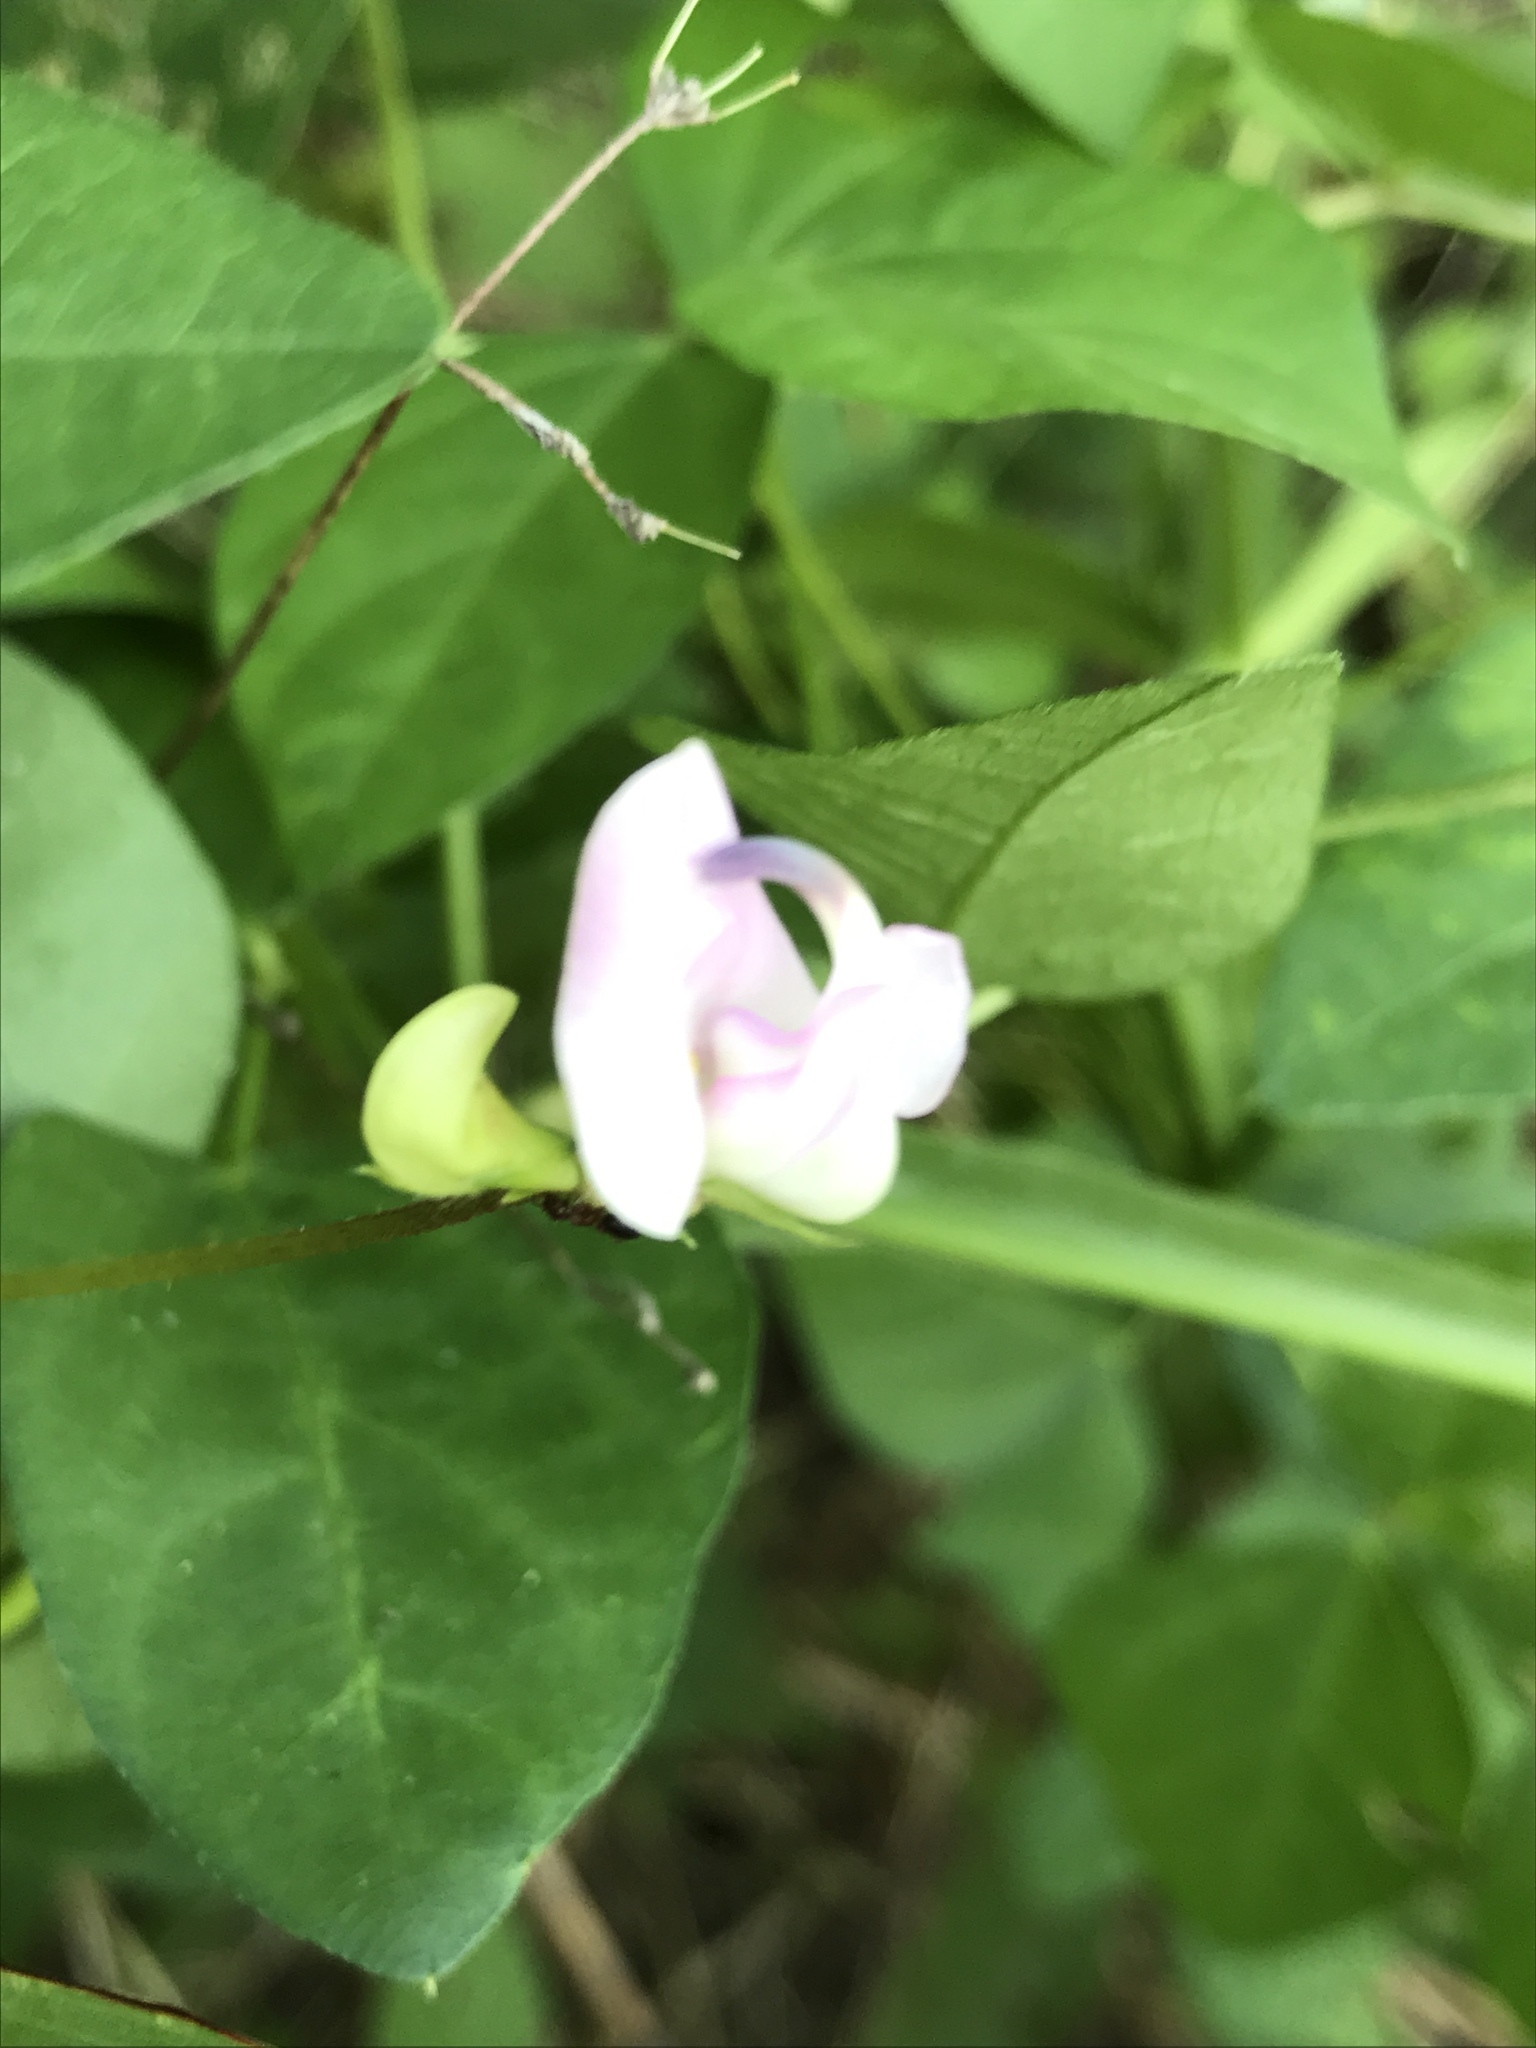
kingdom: Plantae
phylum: Tracheophyta
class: Magnoliopsida
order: Fabales
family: Fabaceae
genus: Strophostyles
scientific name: Strophostyles helvola
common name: Trailing wild bean
